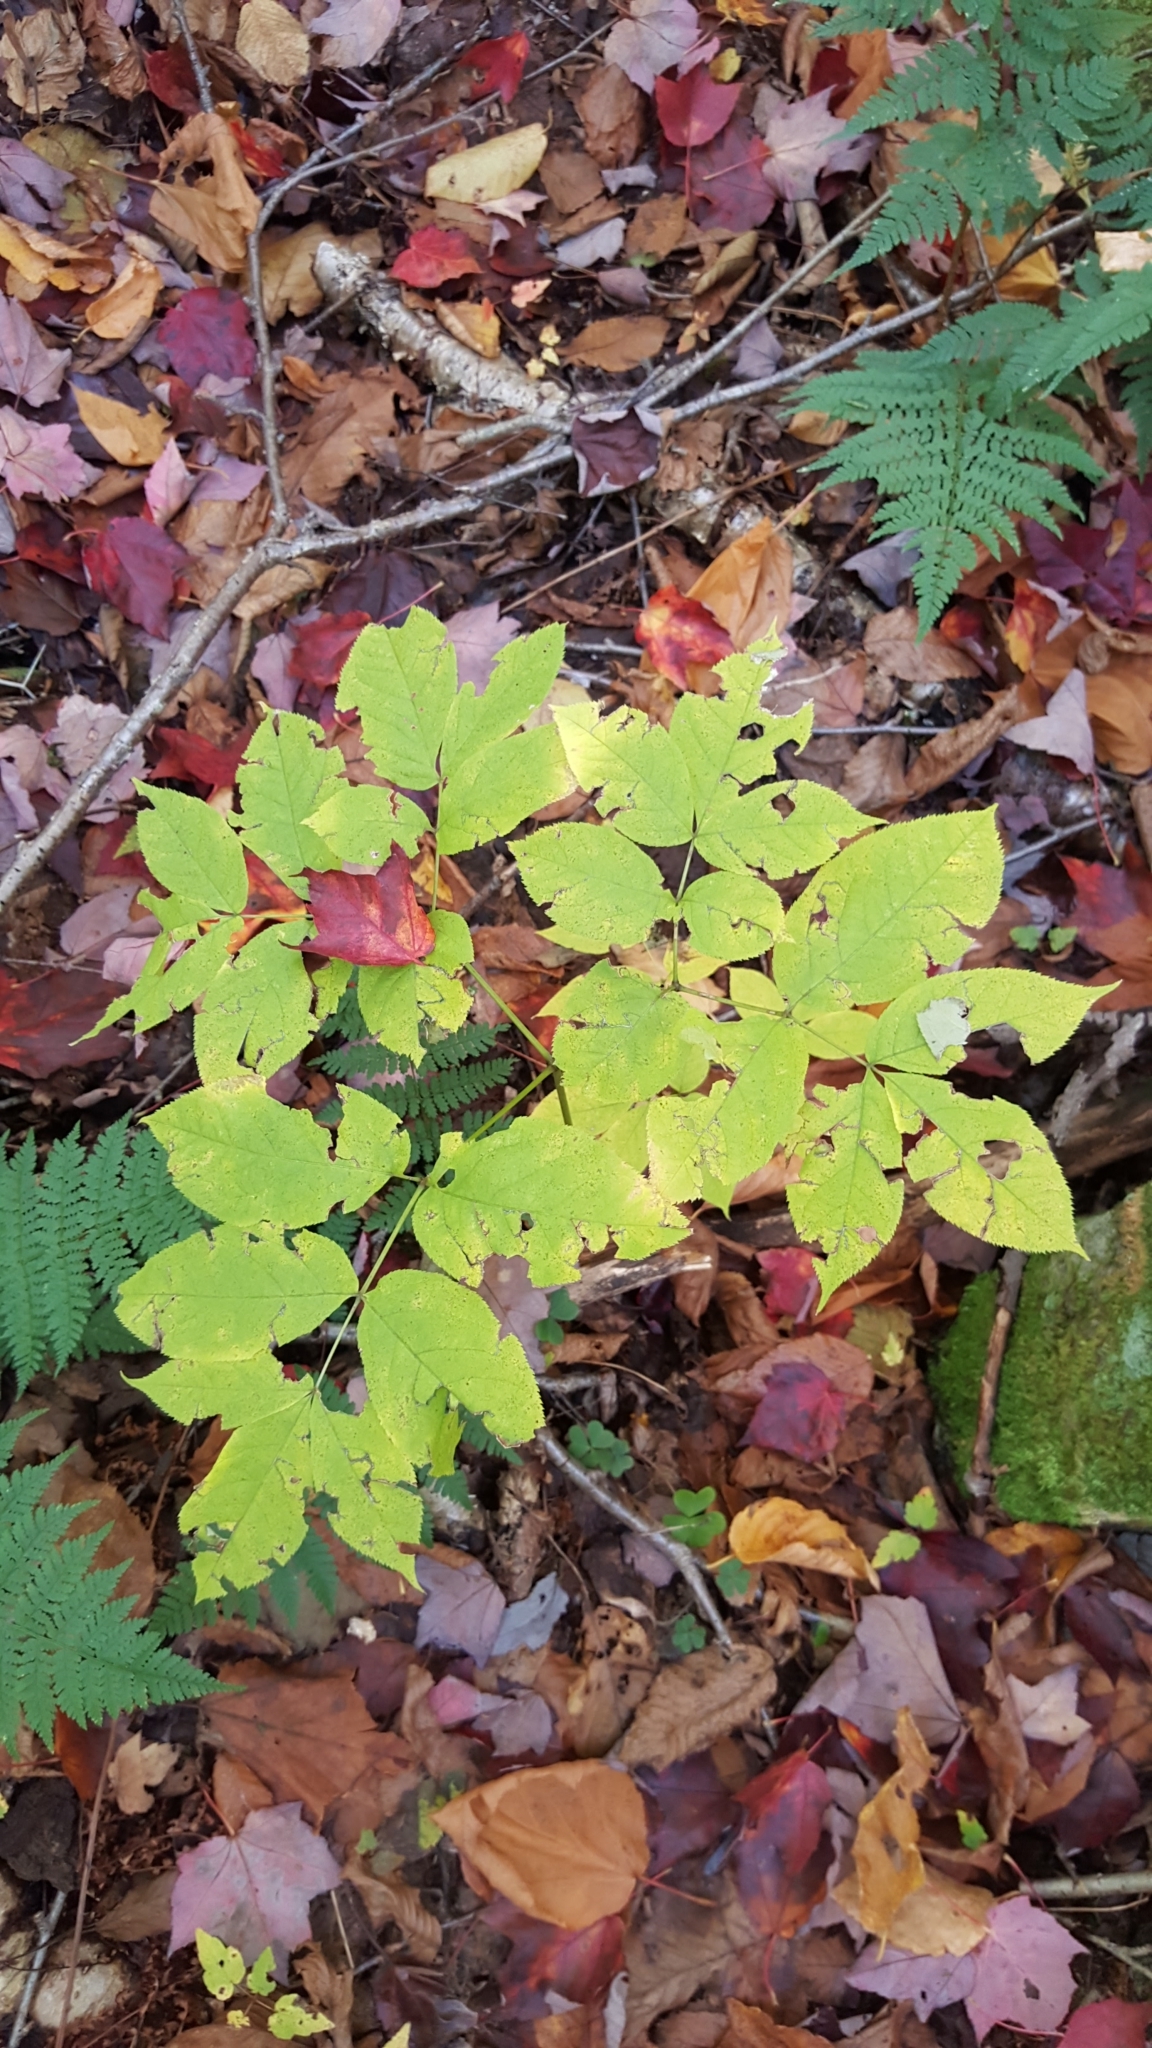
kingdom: Plantae
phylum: Tracheophyta
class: Magnoliopsida
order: Apiales
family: Araliaceae
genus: Aralia
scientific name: Aralia nudicaulis
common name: Wild sarsaparilla
